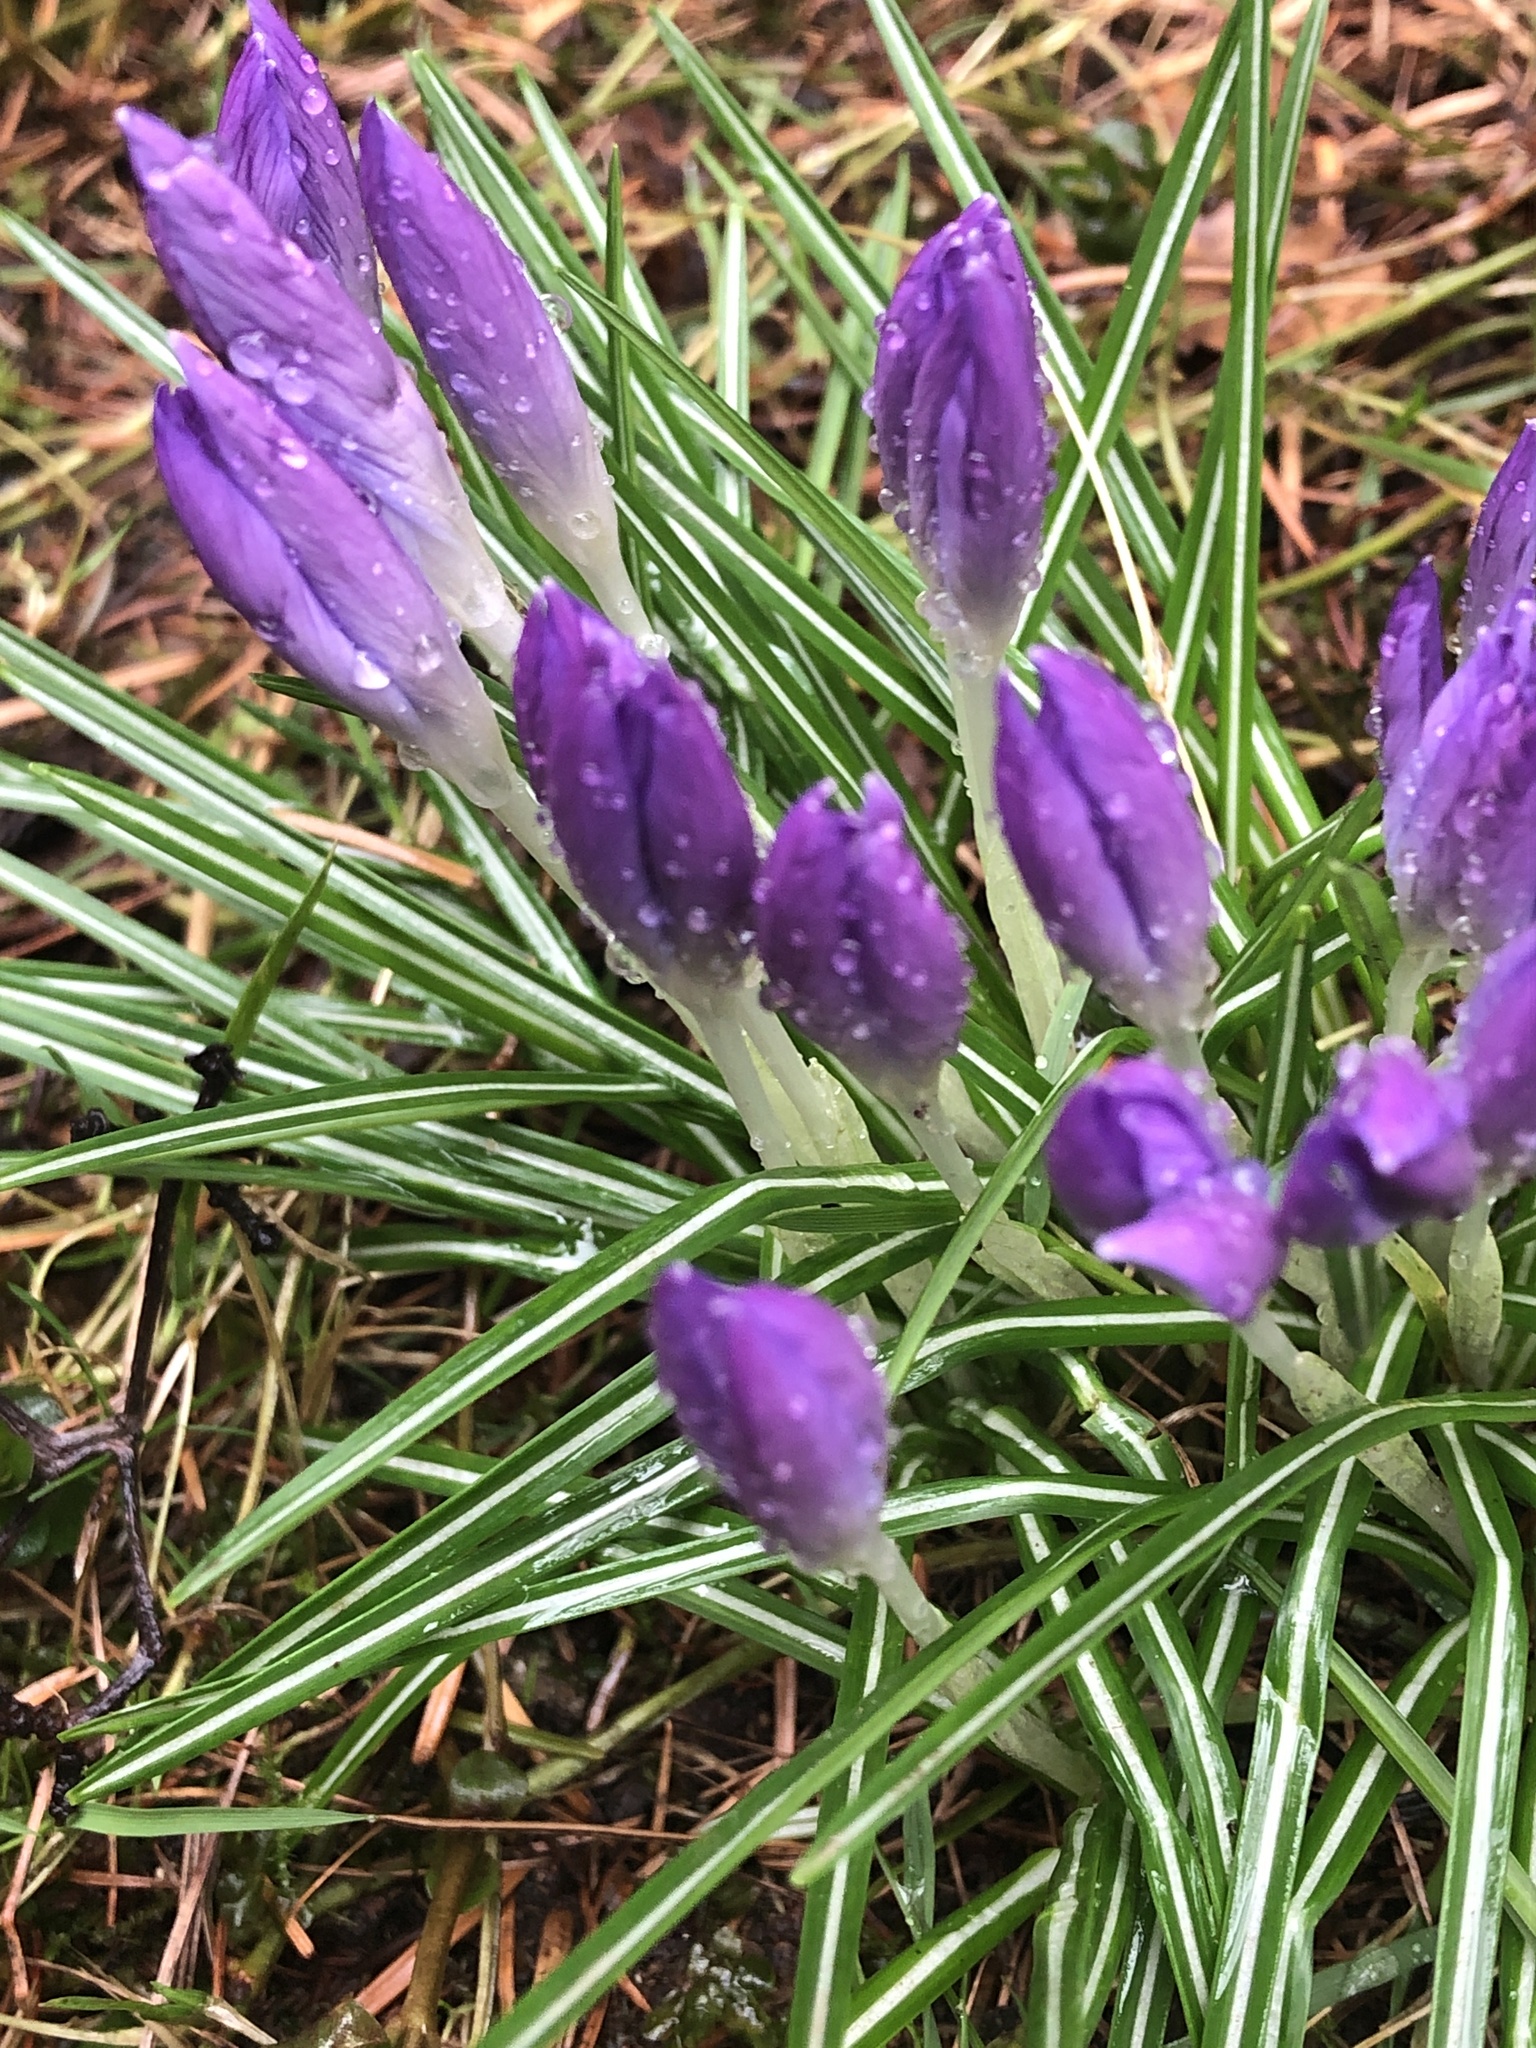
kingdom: Plantae
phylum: Tracheophyta
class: Liliopsida
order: Asparagales
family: Iridaceae
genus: Crocus
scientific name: Crocus tommasinianus
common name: Early crocus
